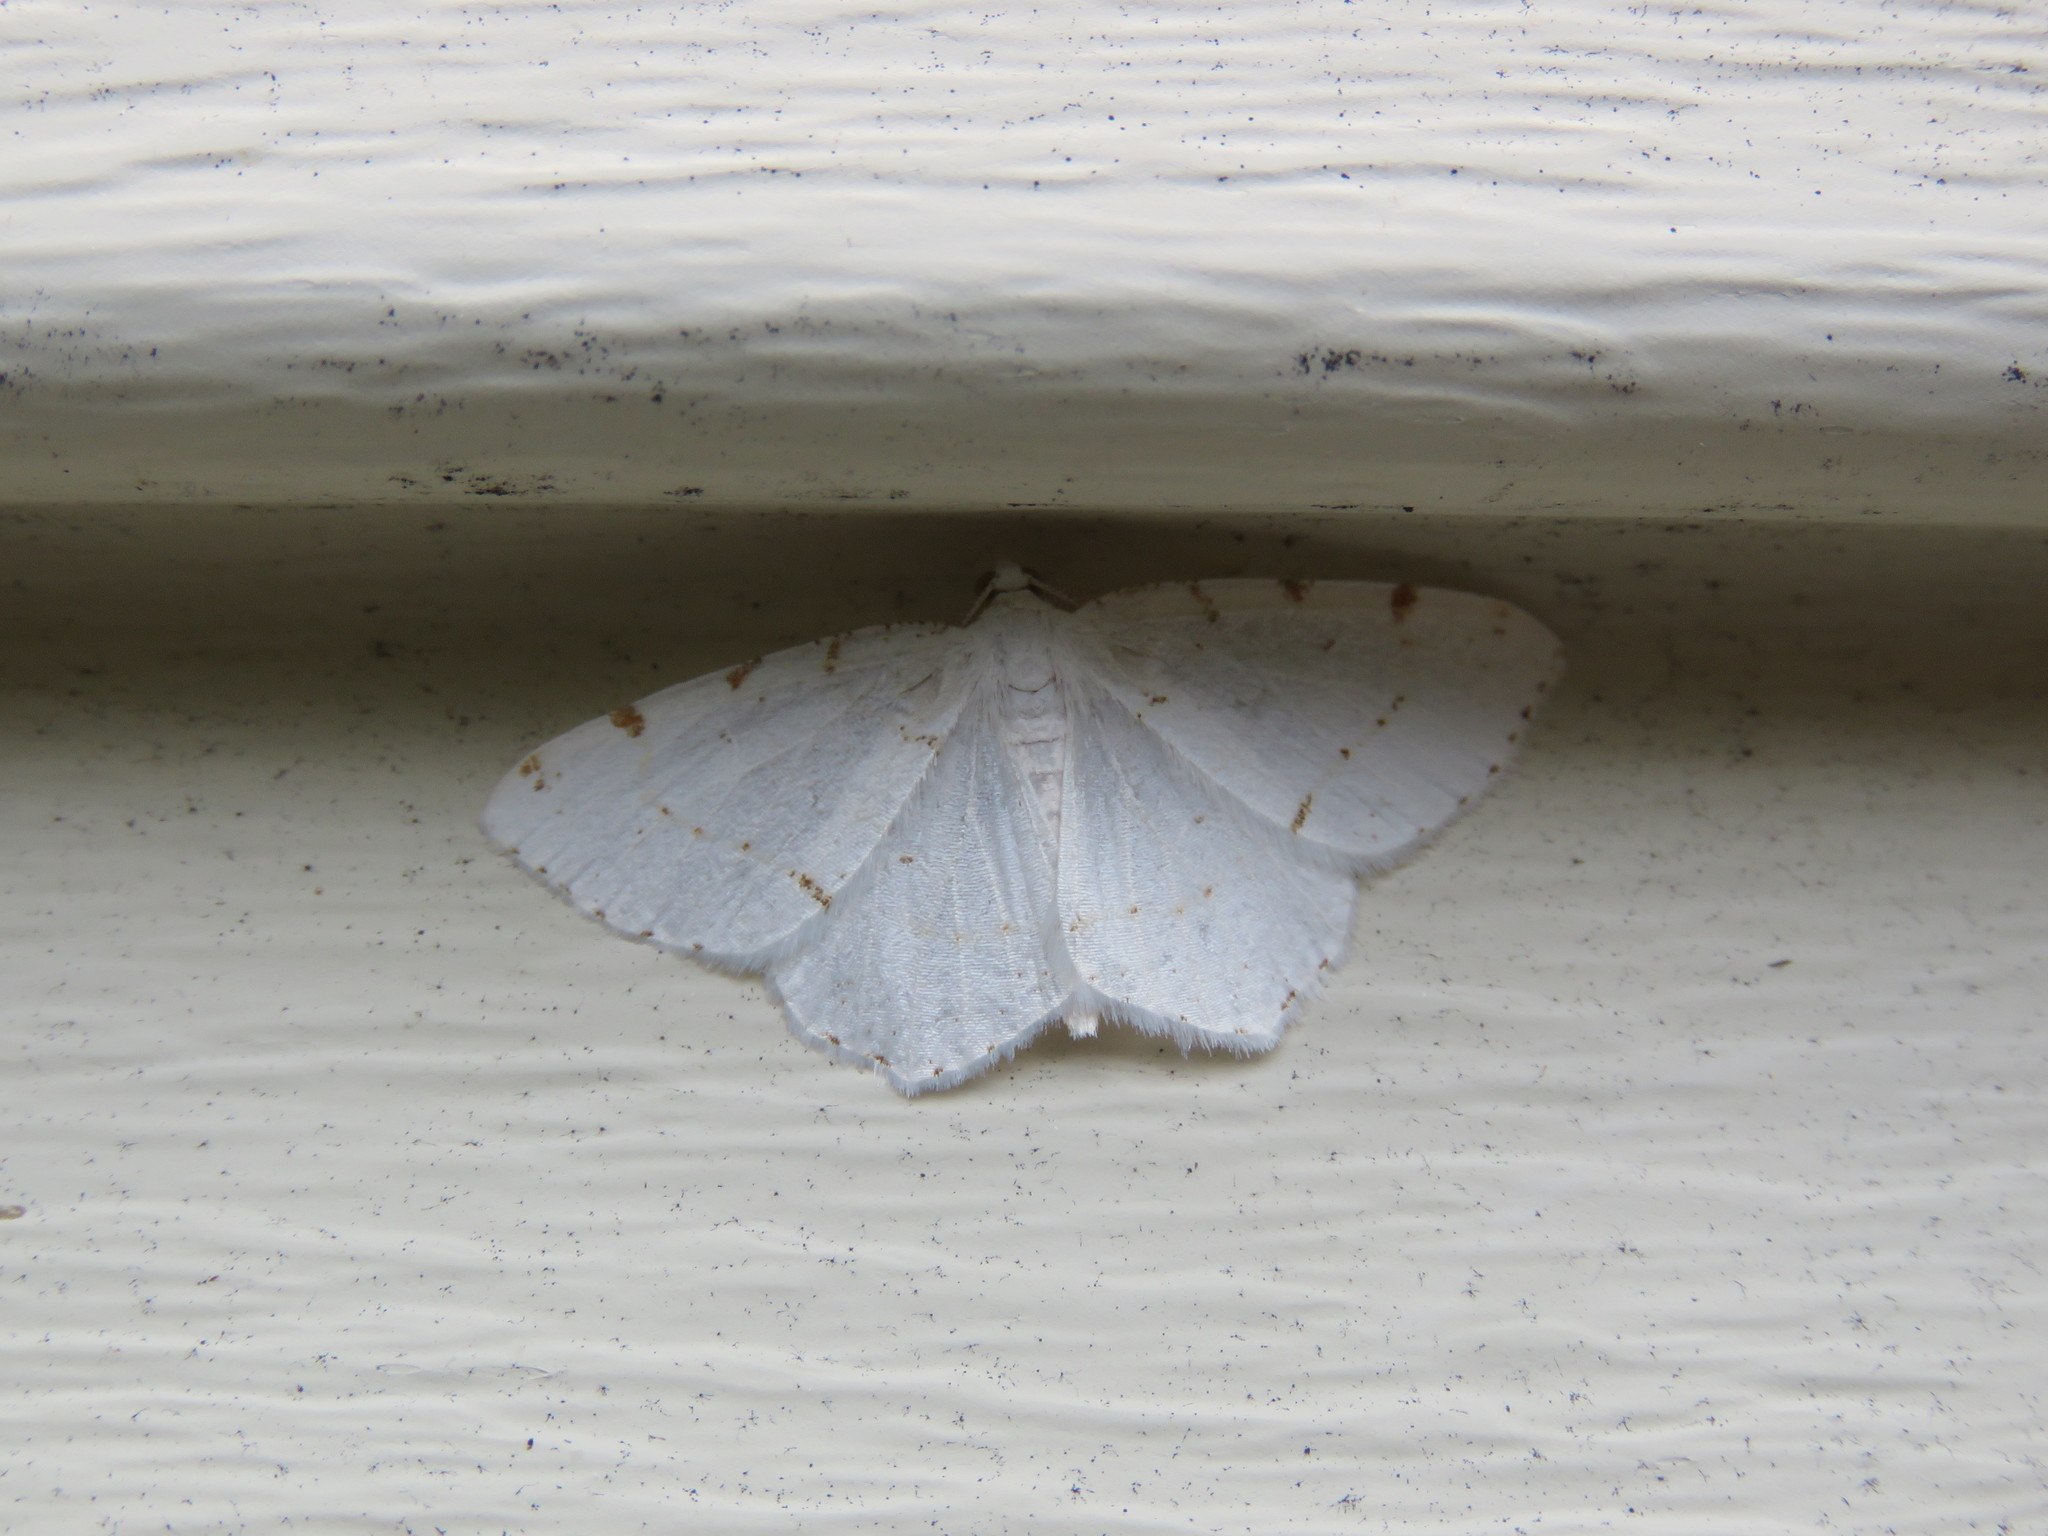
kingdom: Animalia
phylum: Arthropoda
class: Insecta
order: Lepidoptera
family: Geometridae
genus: Macaria
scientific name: Macaria pustularia
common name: Lesser maple spanworm moth
